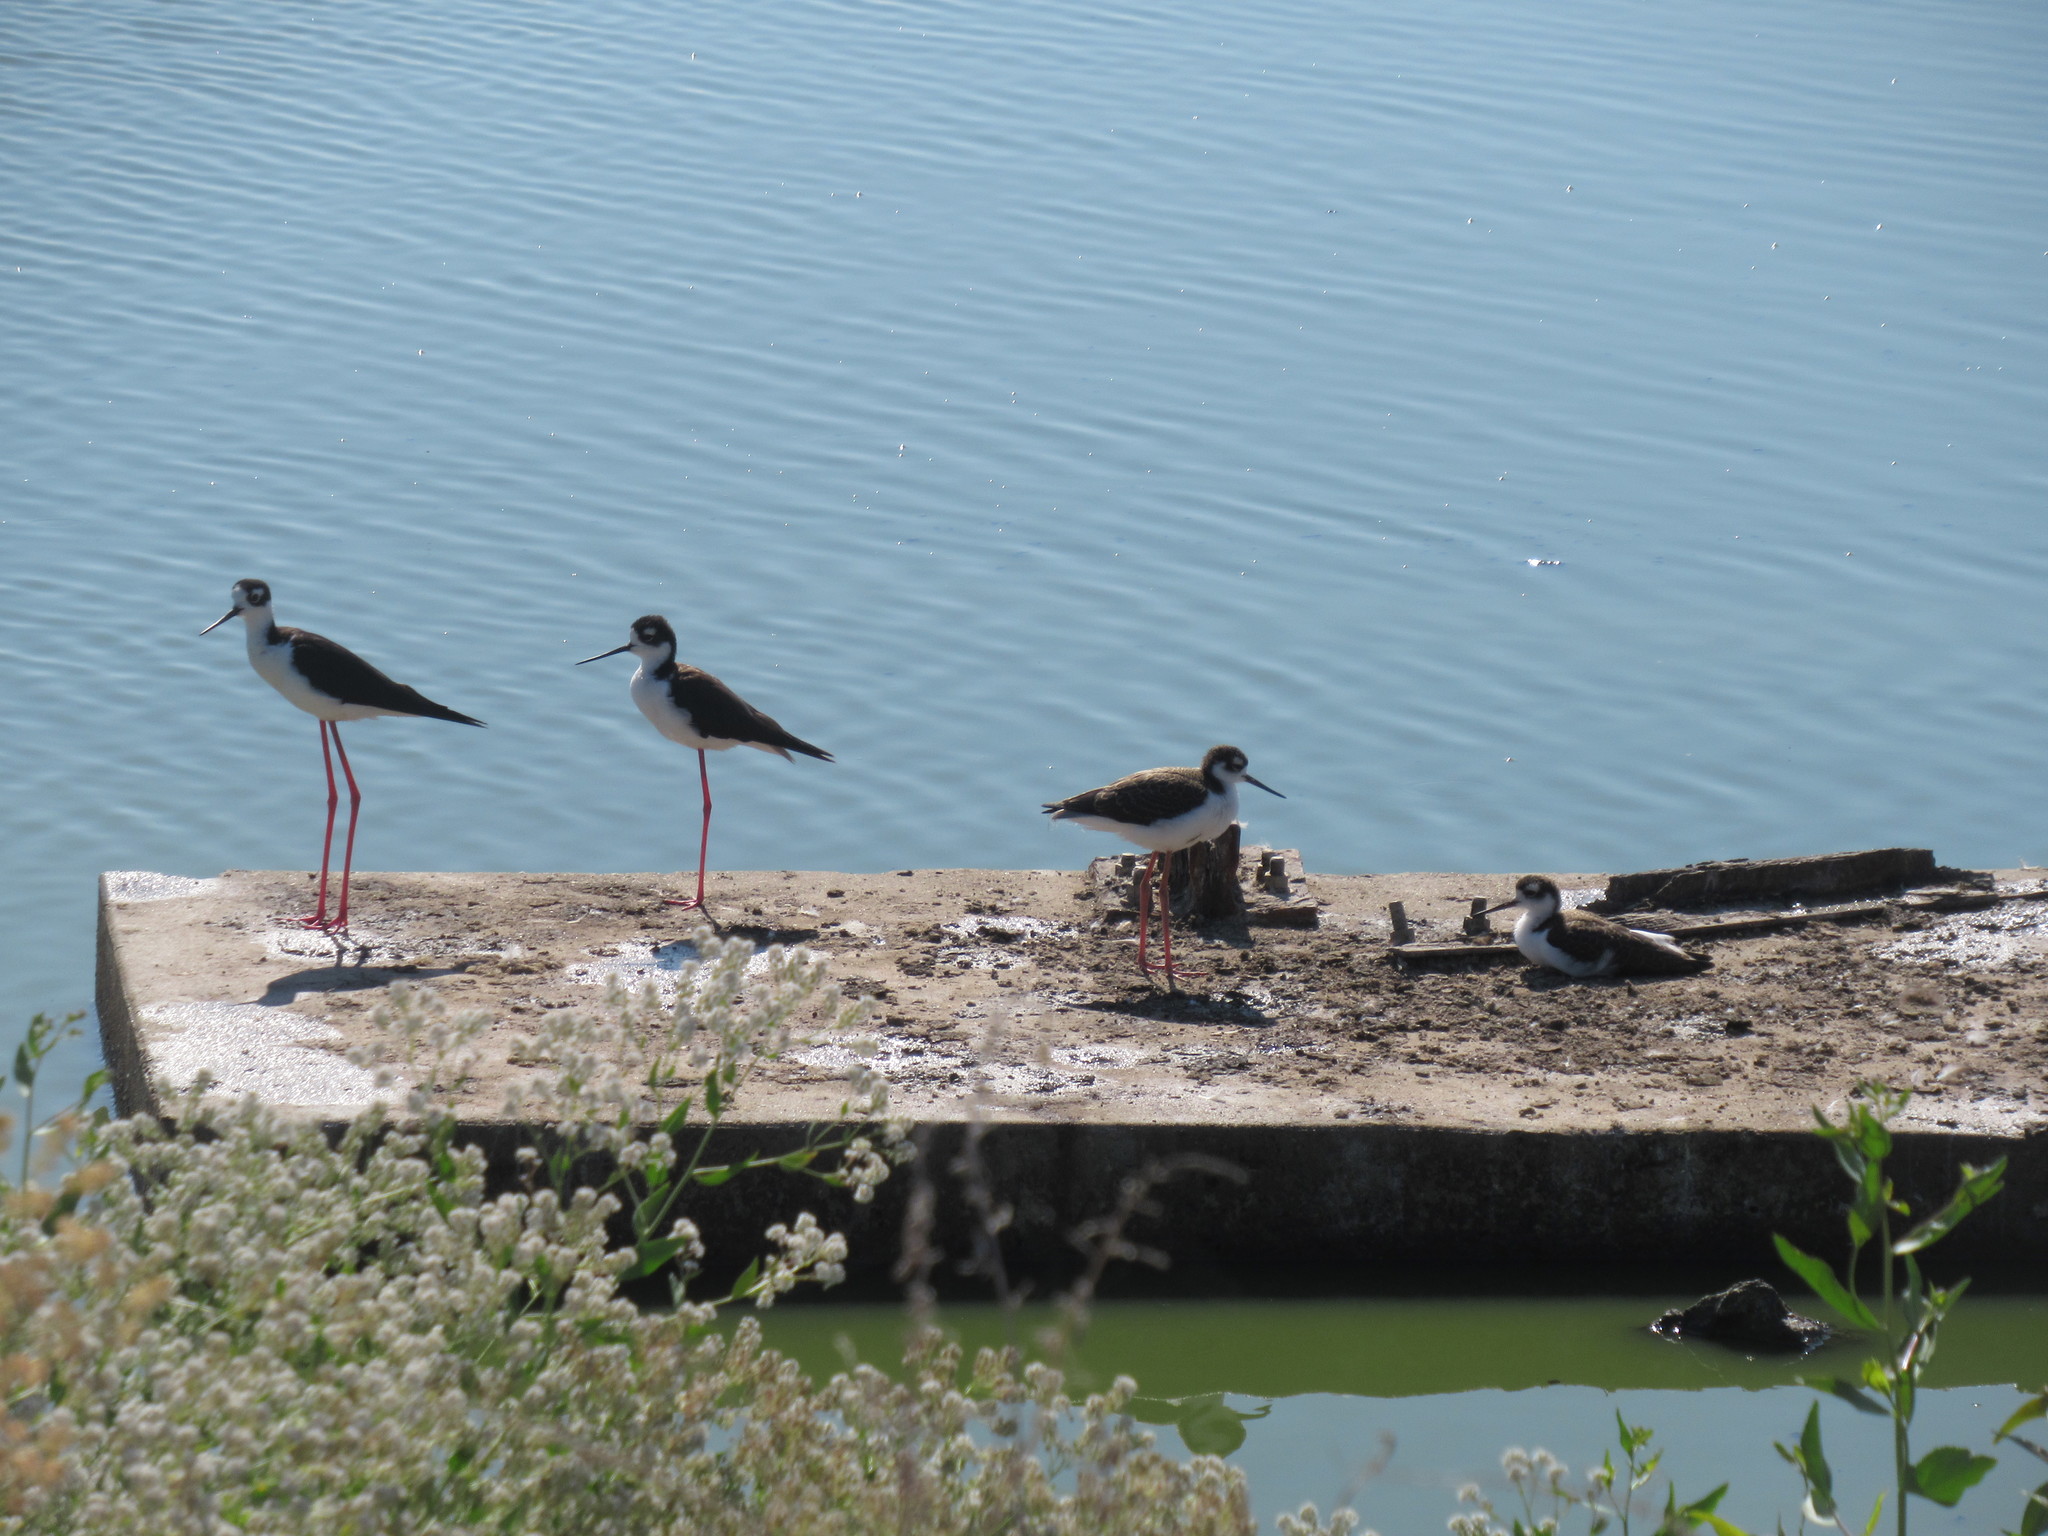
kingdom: Animalia
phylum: Chordata
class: Aves
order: Charadriiformes
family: Recurvirostridae
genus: Himantopus
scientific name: Himantopus mexicanus
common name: Black-necked stilt
